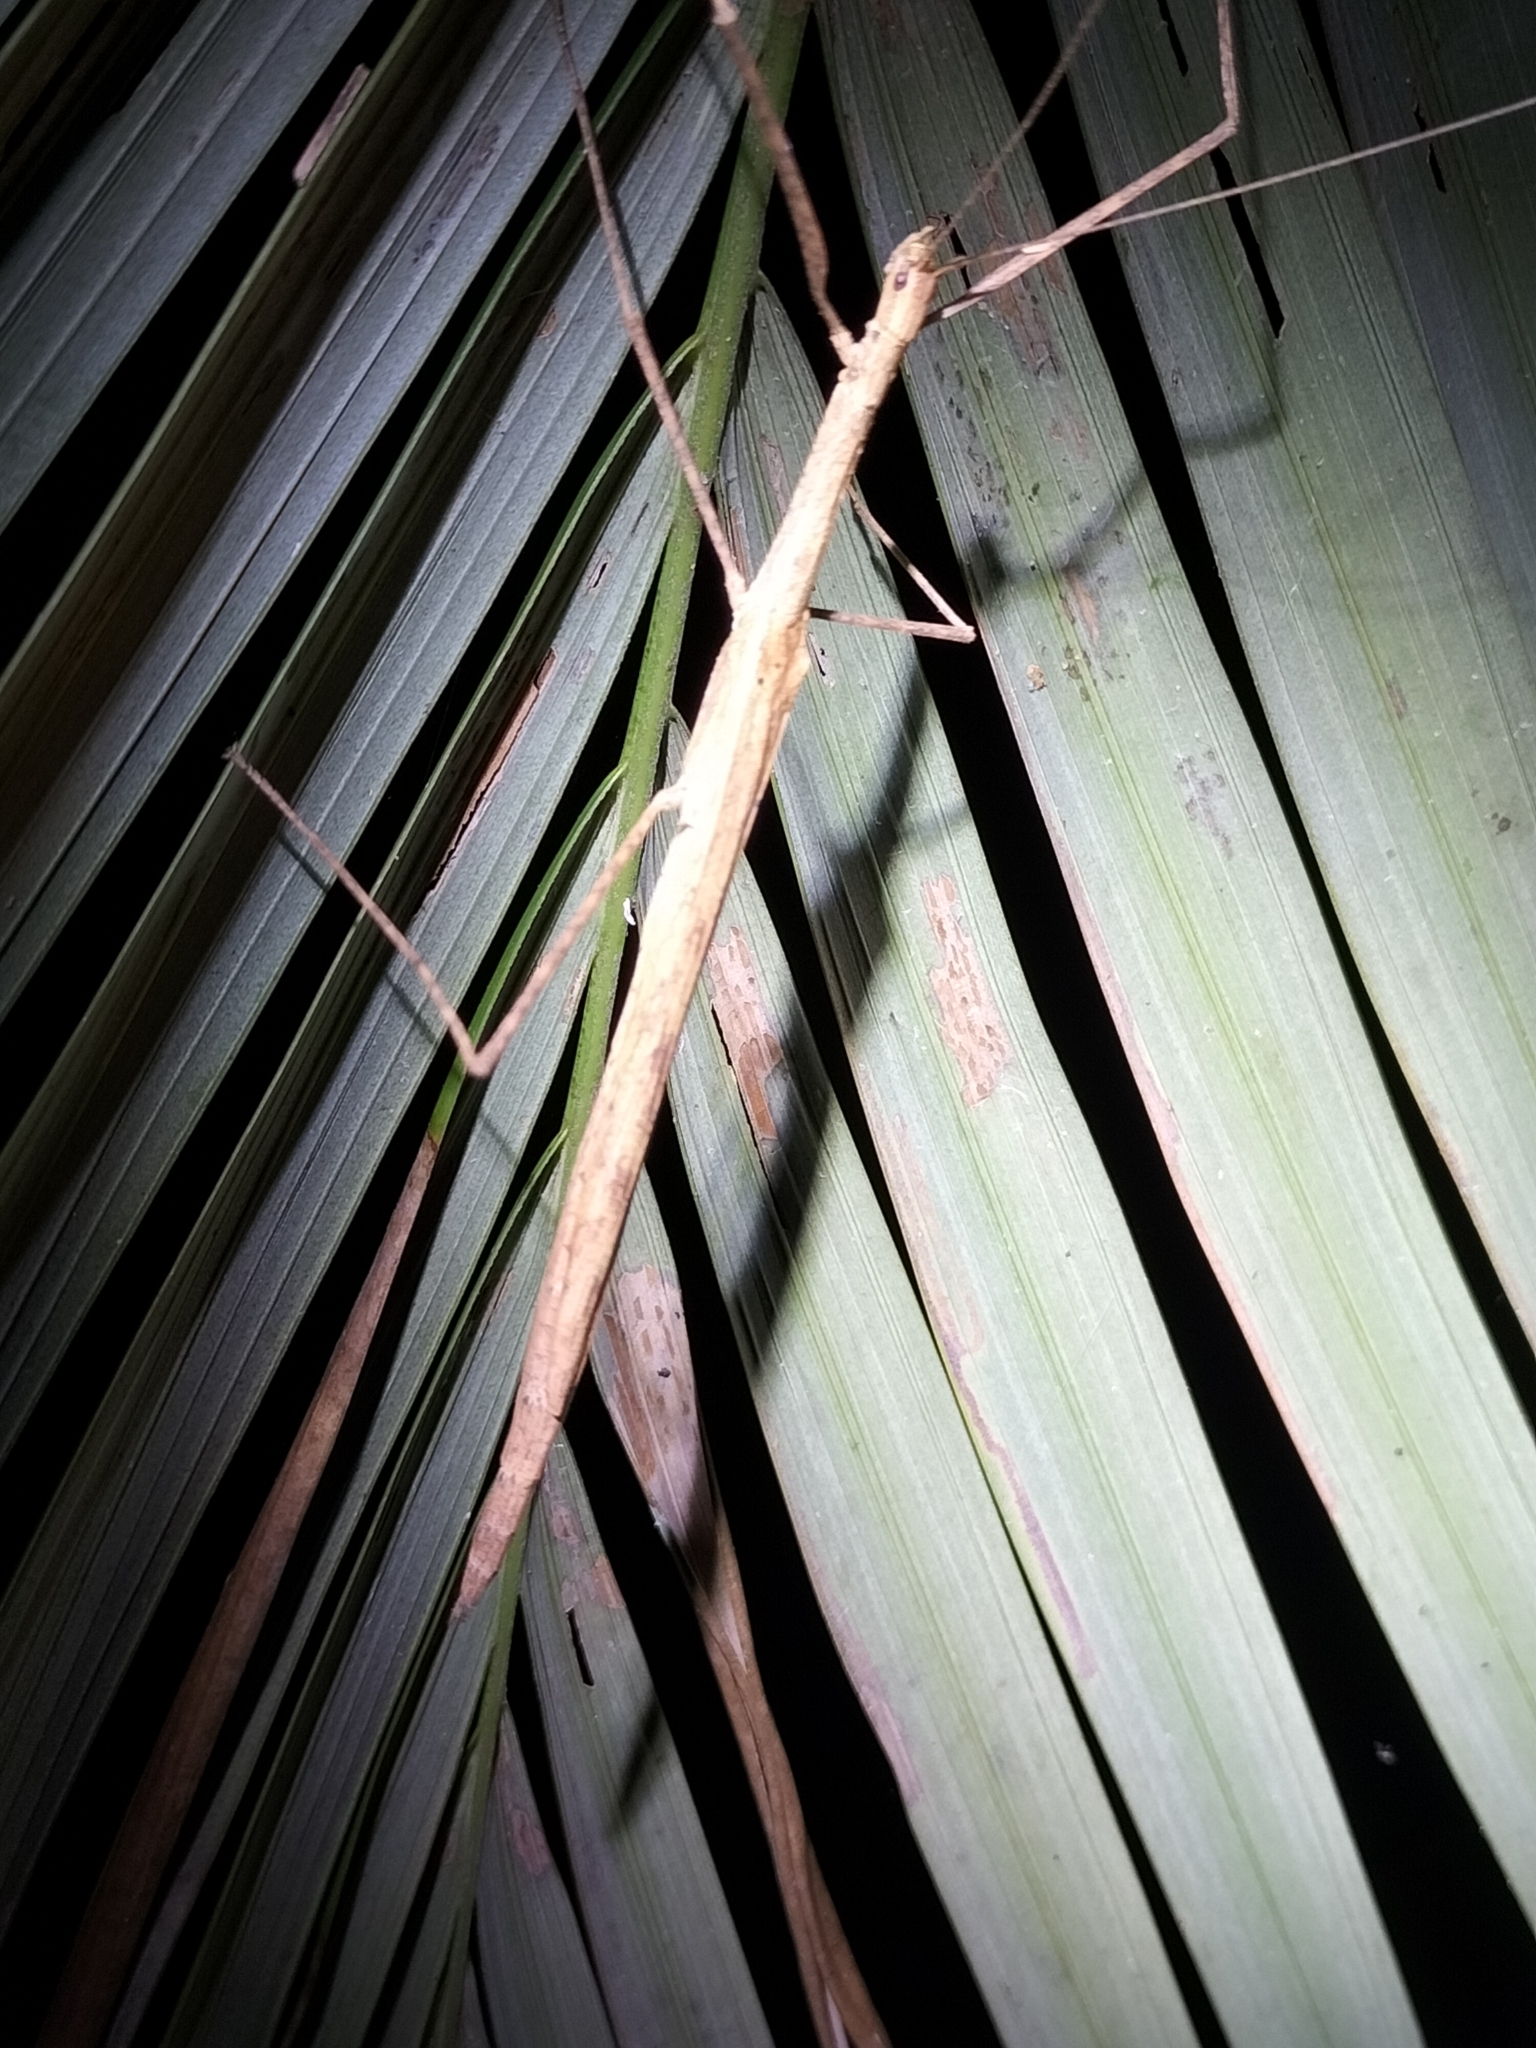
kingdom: Animalia
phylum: Arthropoda
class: Insecta
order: Phasmida
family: Lonchodidae
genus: Sipyloidea
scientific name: Sipyloidea larryi
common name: Hurricane larry stick-insect
